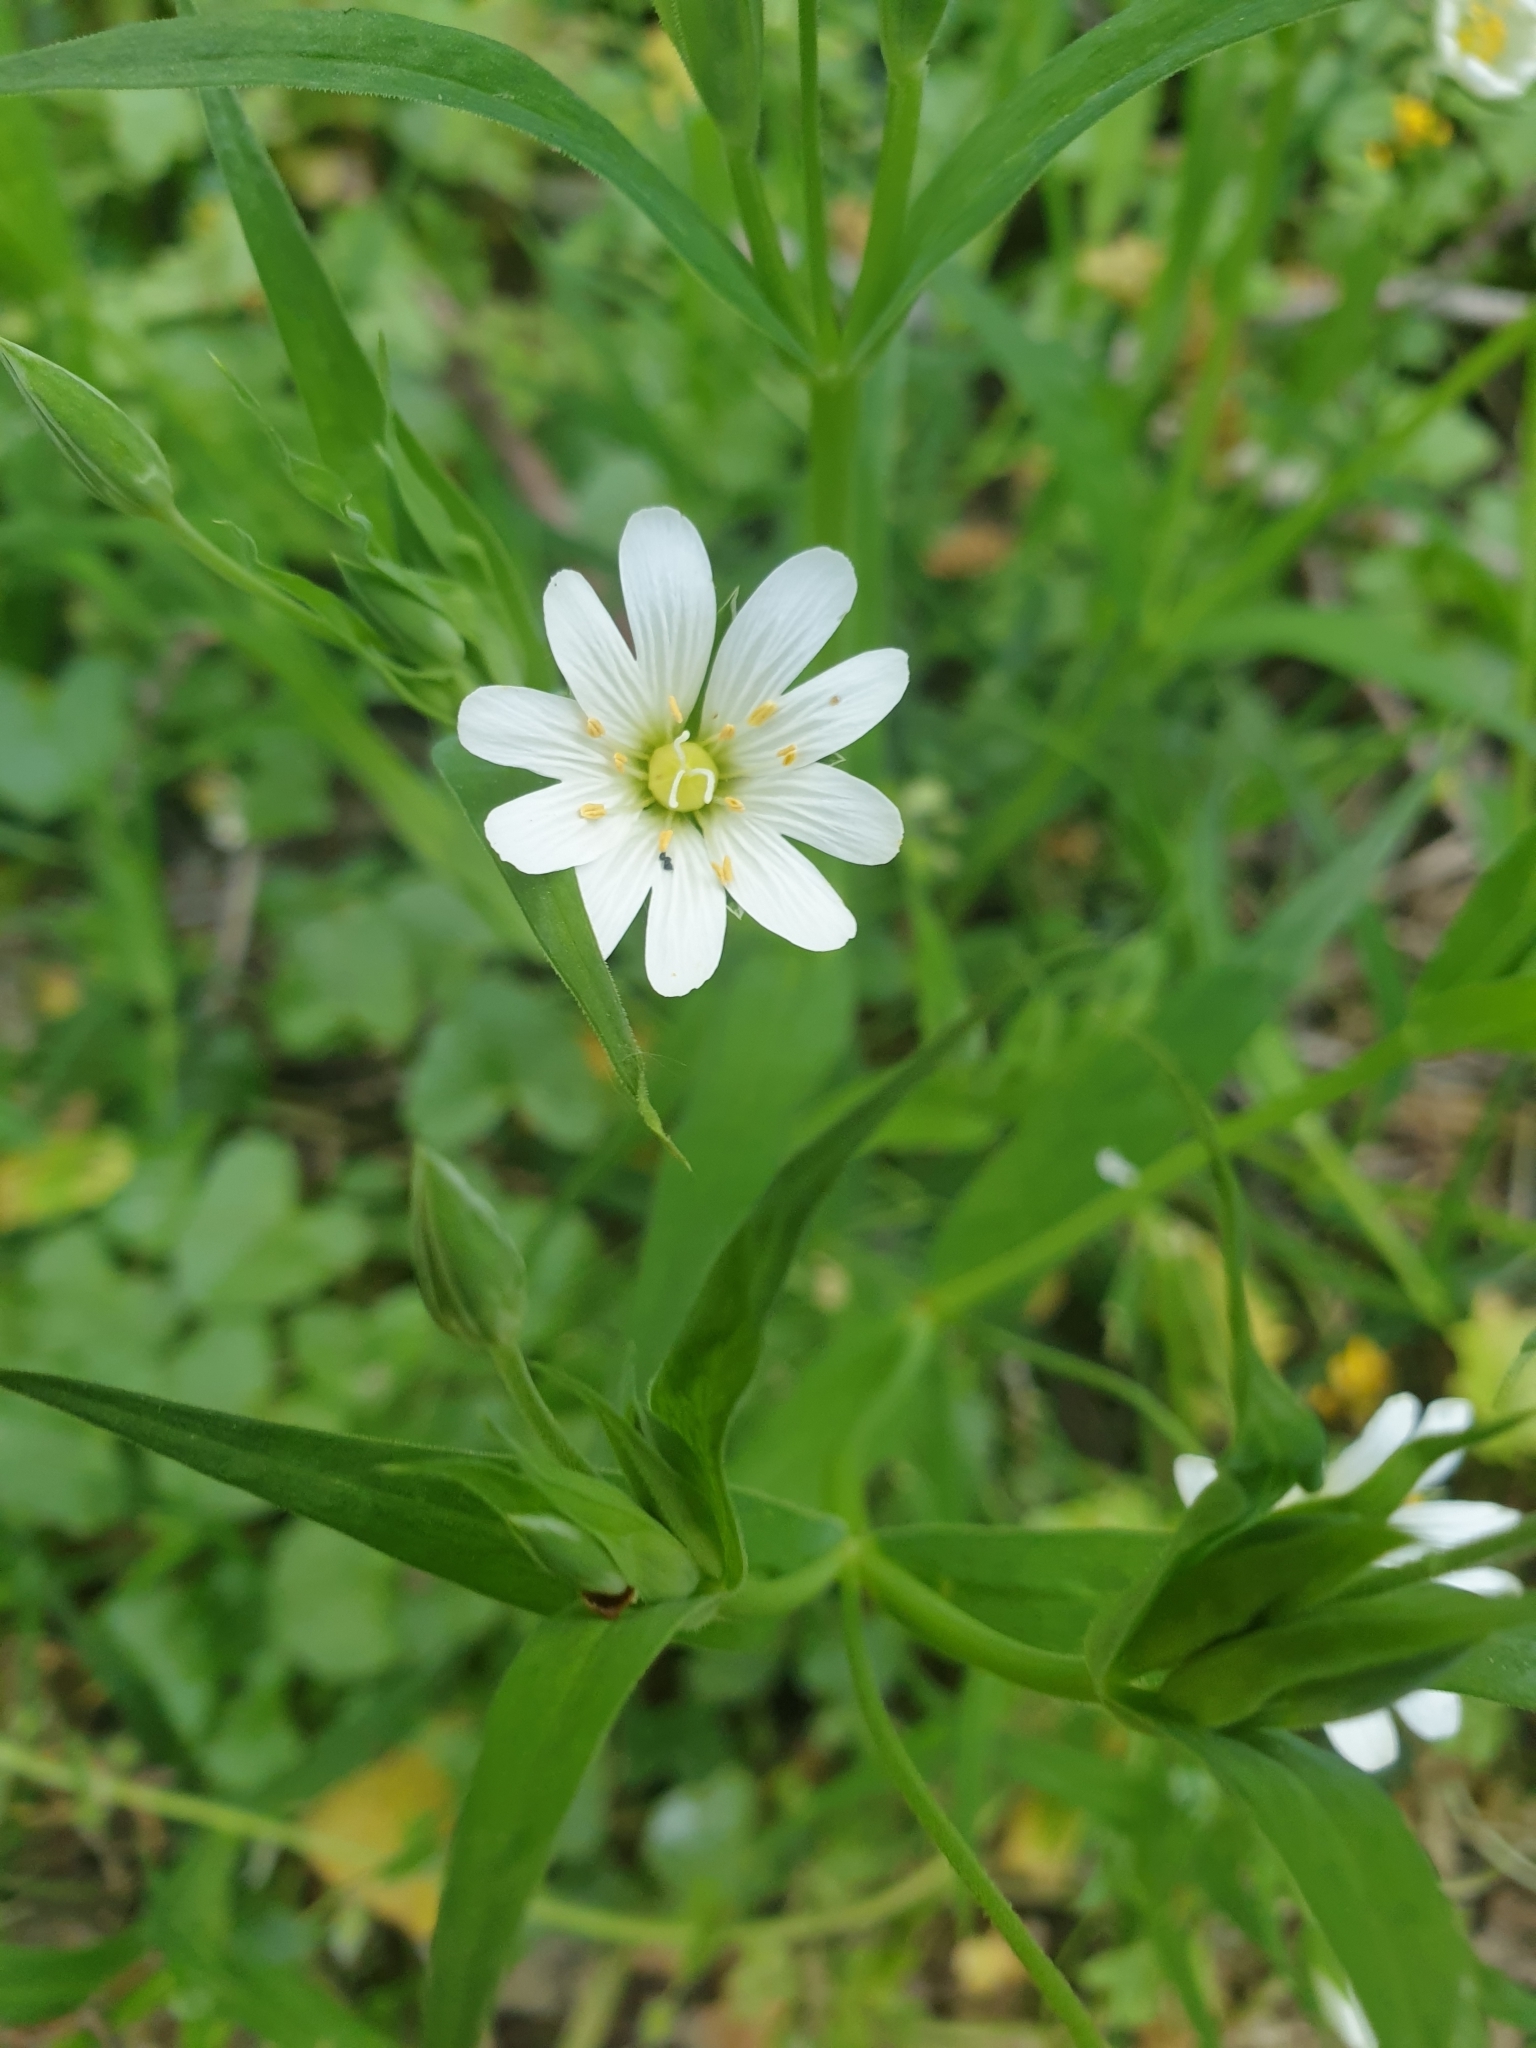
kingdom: Plantae
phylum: Tracheophyta
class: Magnoliopsida
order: Caryophyllales
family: Caryophyllaceae
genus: Rabelera
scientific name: Rabelera holostea
